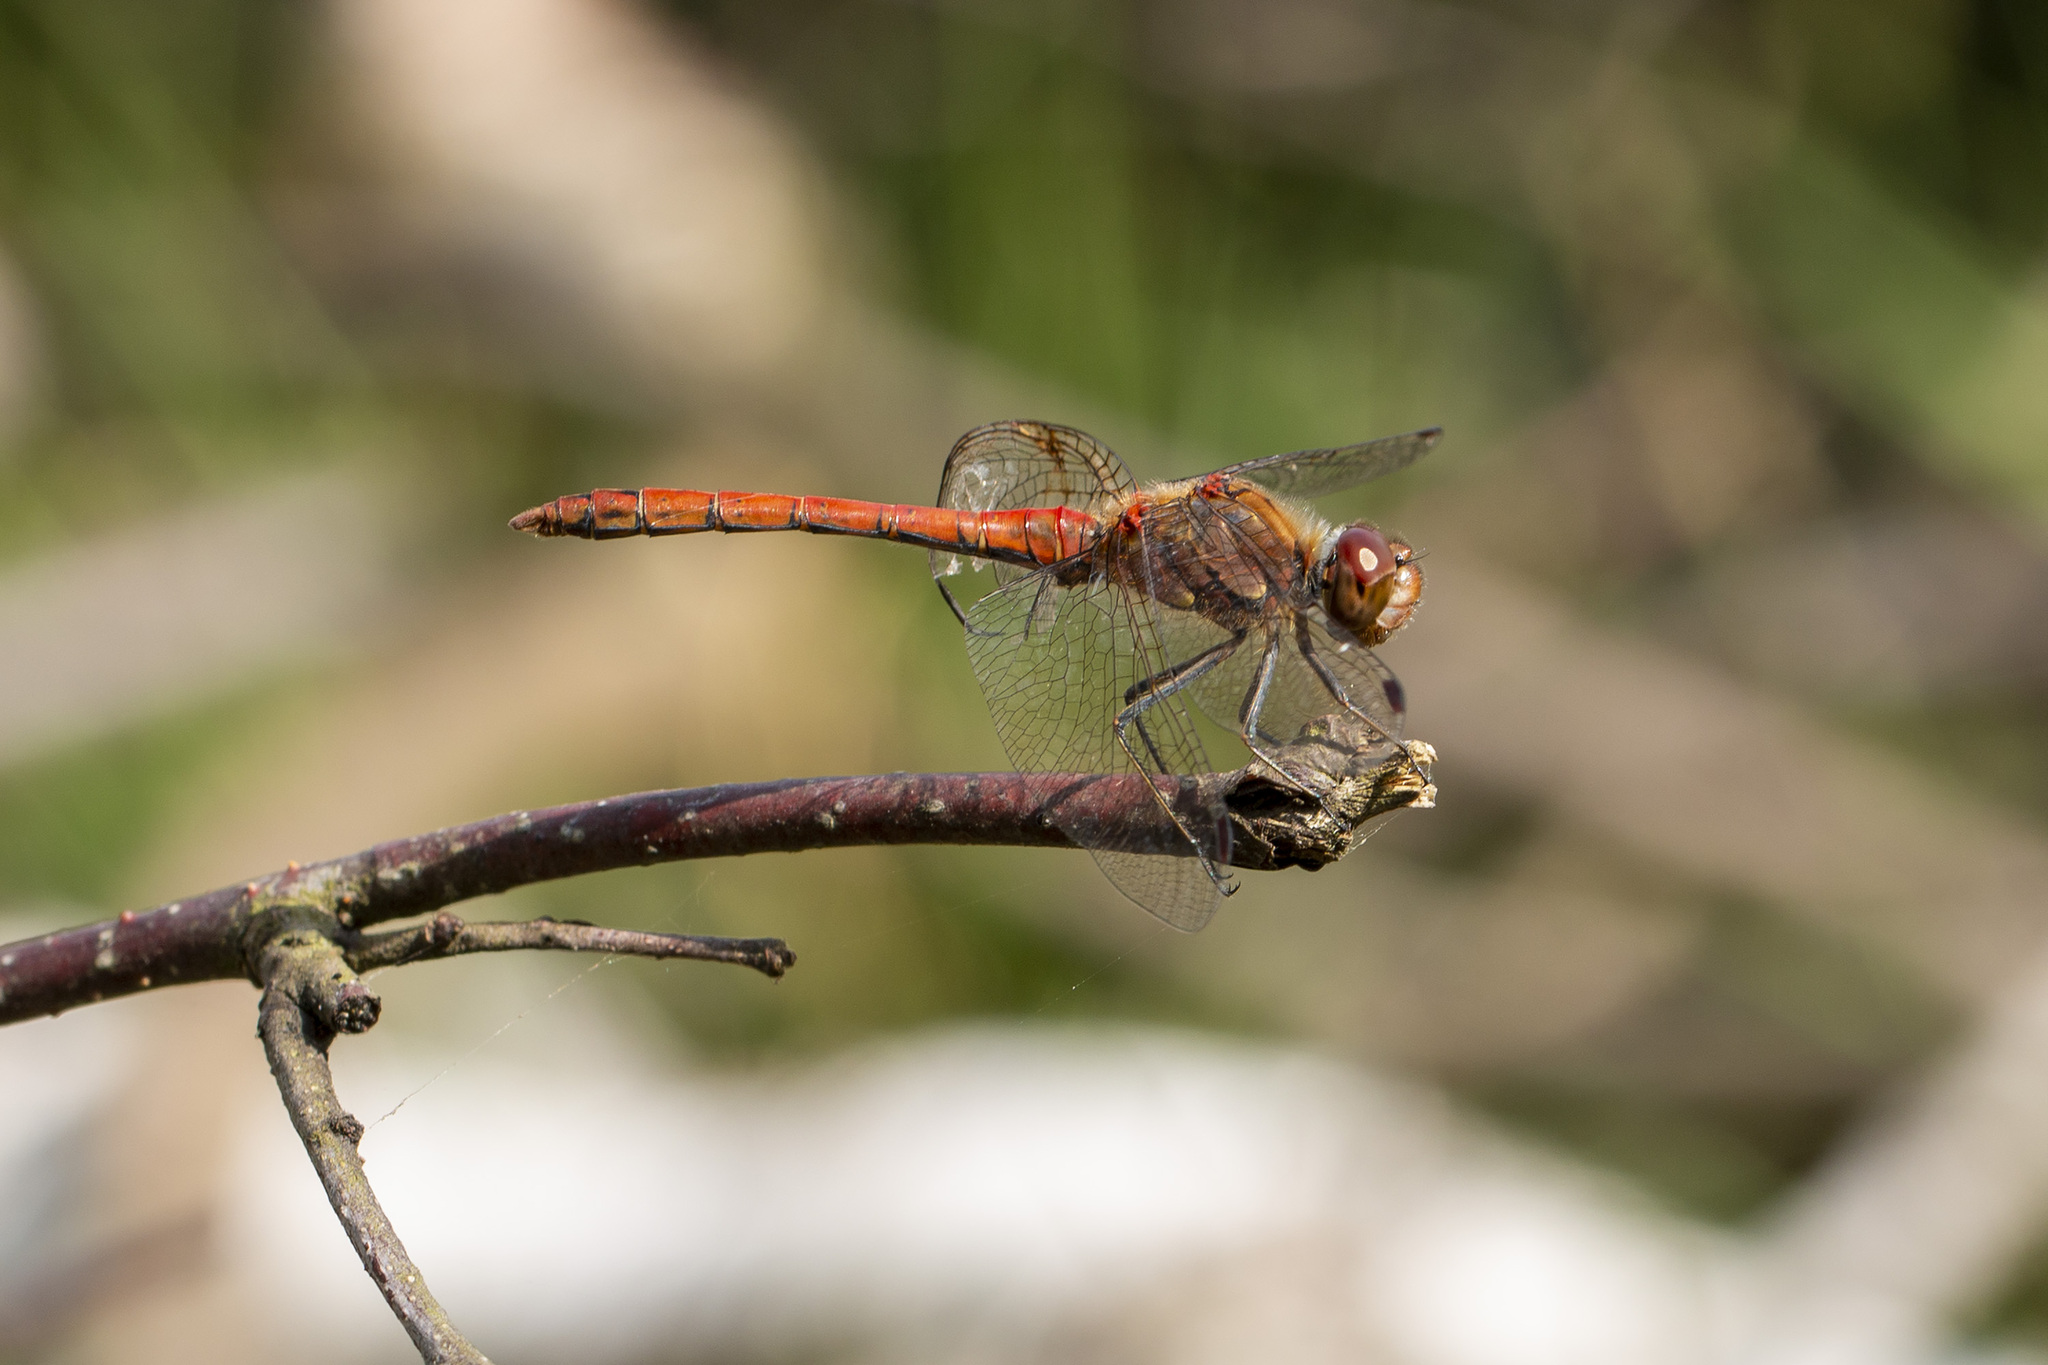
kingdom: Animalia
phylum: Arthropoda
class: Insecta
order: Odonata
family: Libellulidae
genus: Sympetrum
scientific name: Sympetrum striolatum
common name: Common darter
